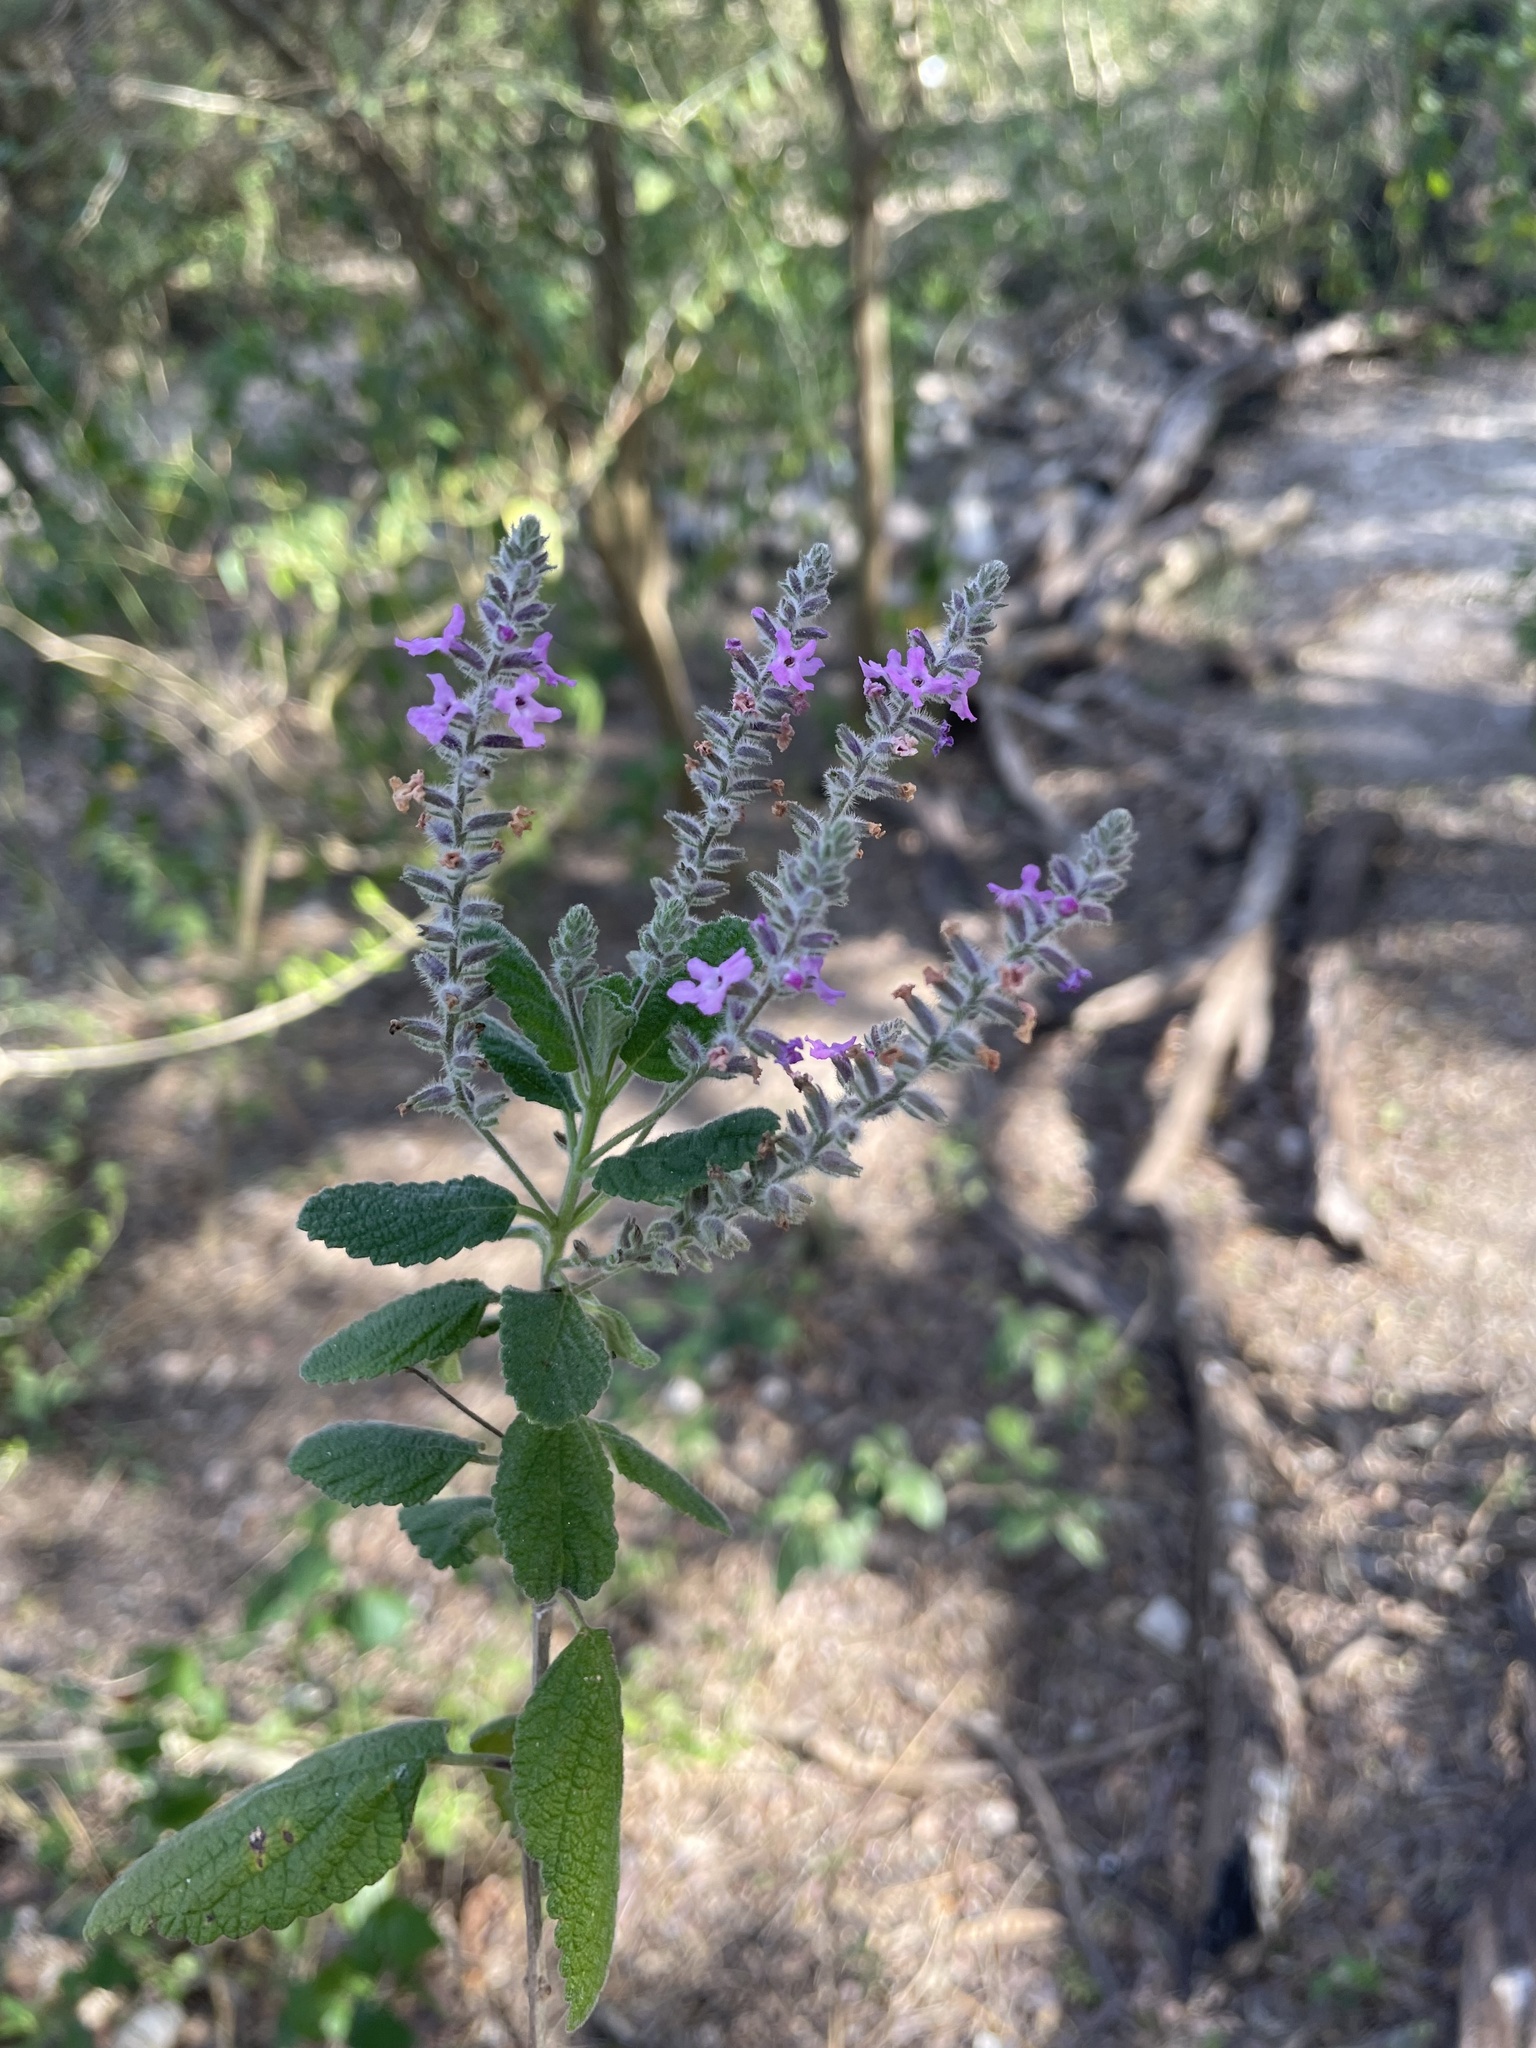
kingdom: Plantae
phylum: Tracheophyta
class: Magnoliopsida
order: Lamiales
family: Verbenaceae
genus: Aloysia
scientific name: Aloysia macrostachya
